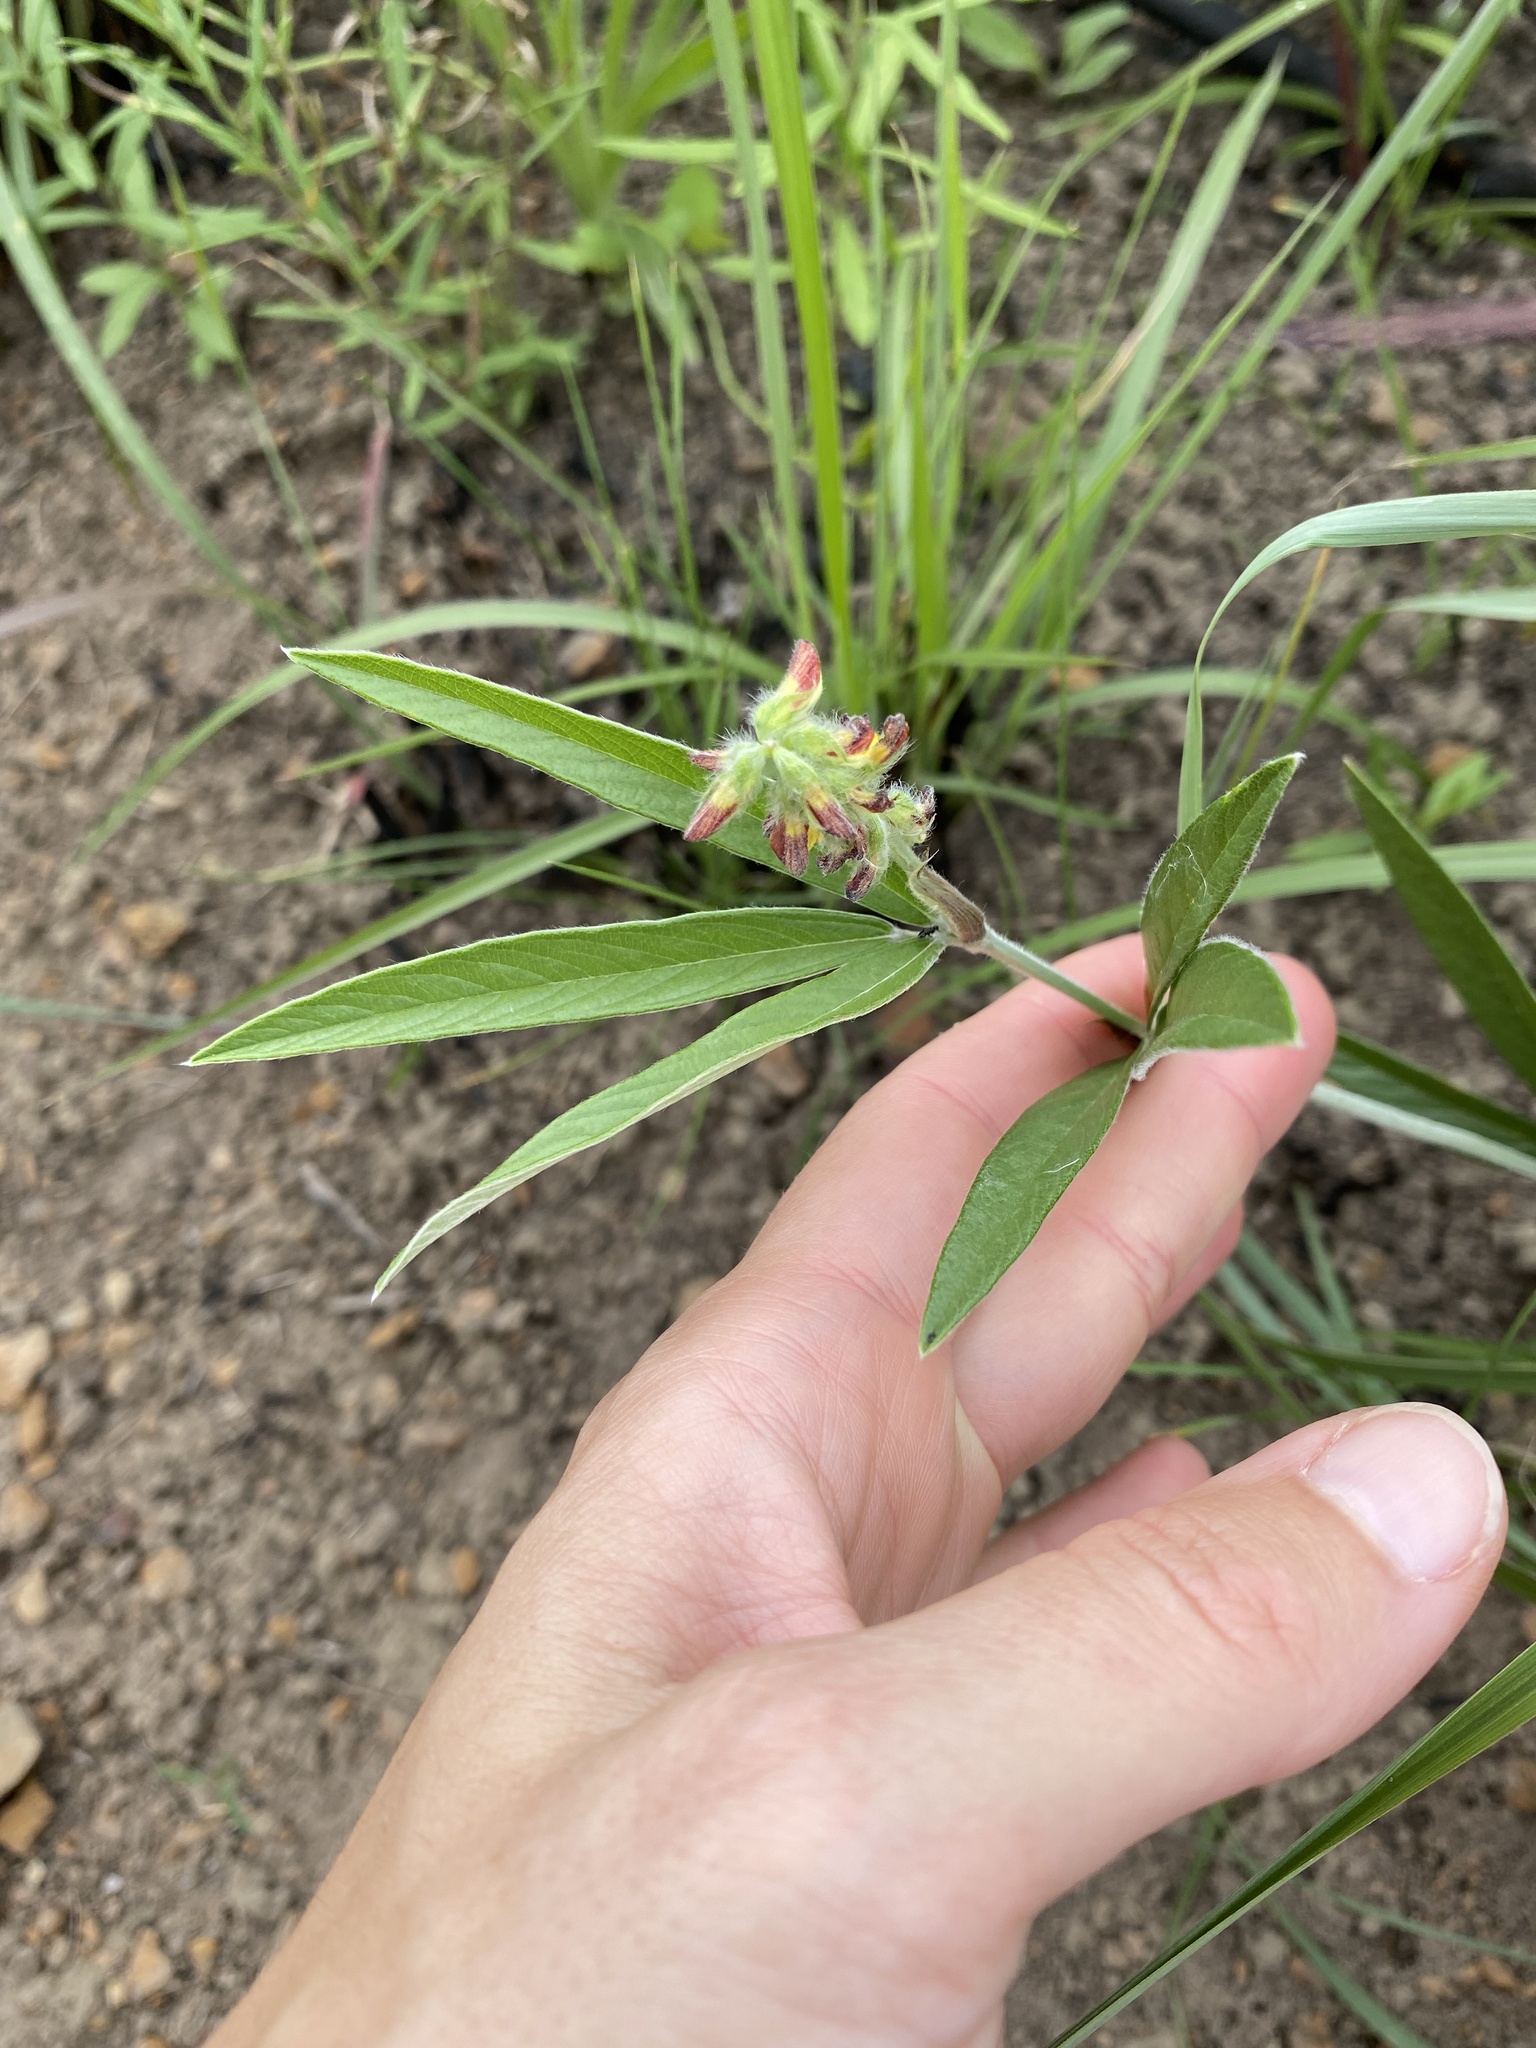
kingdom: Plantae
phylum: Tracheophyta
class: Magnoliopsida
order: Fabales
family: Fabaceae
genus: Eriosema
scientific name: Eriosema salignum
